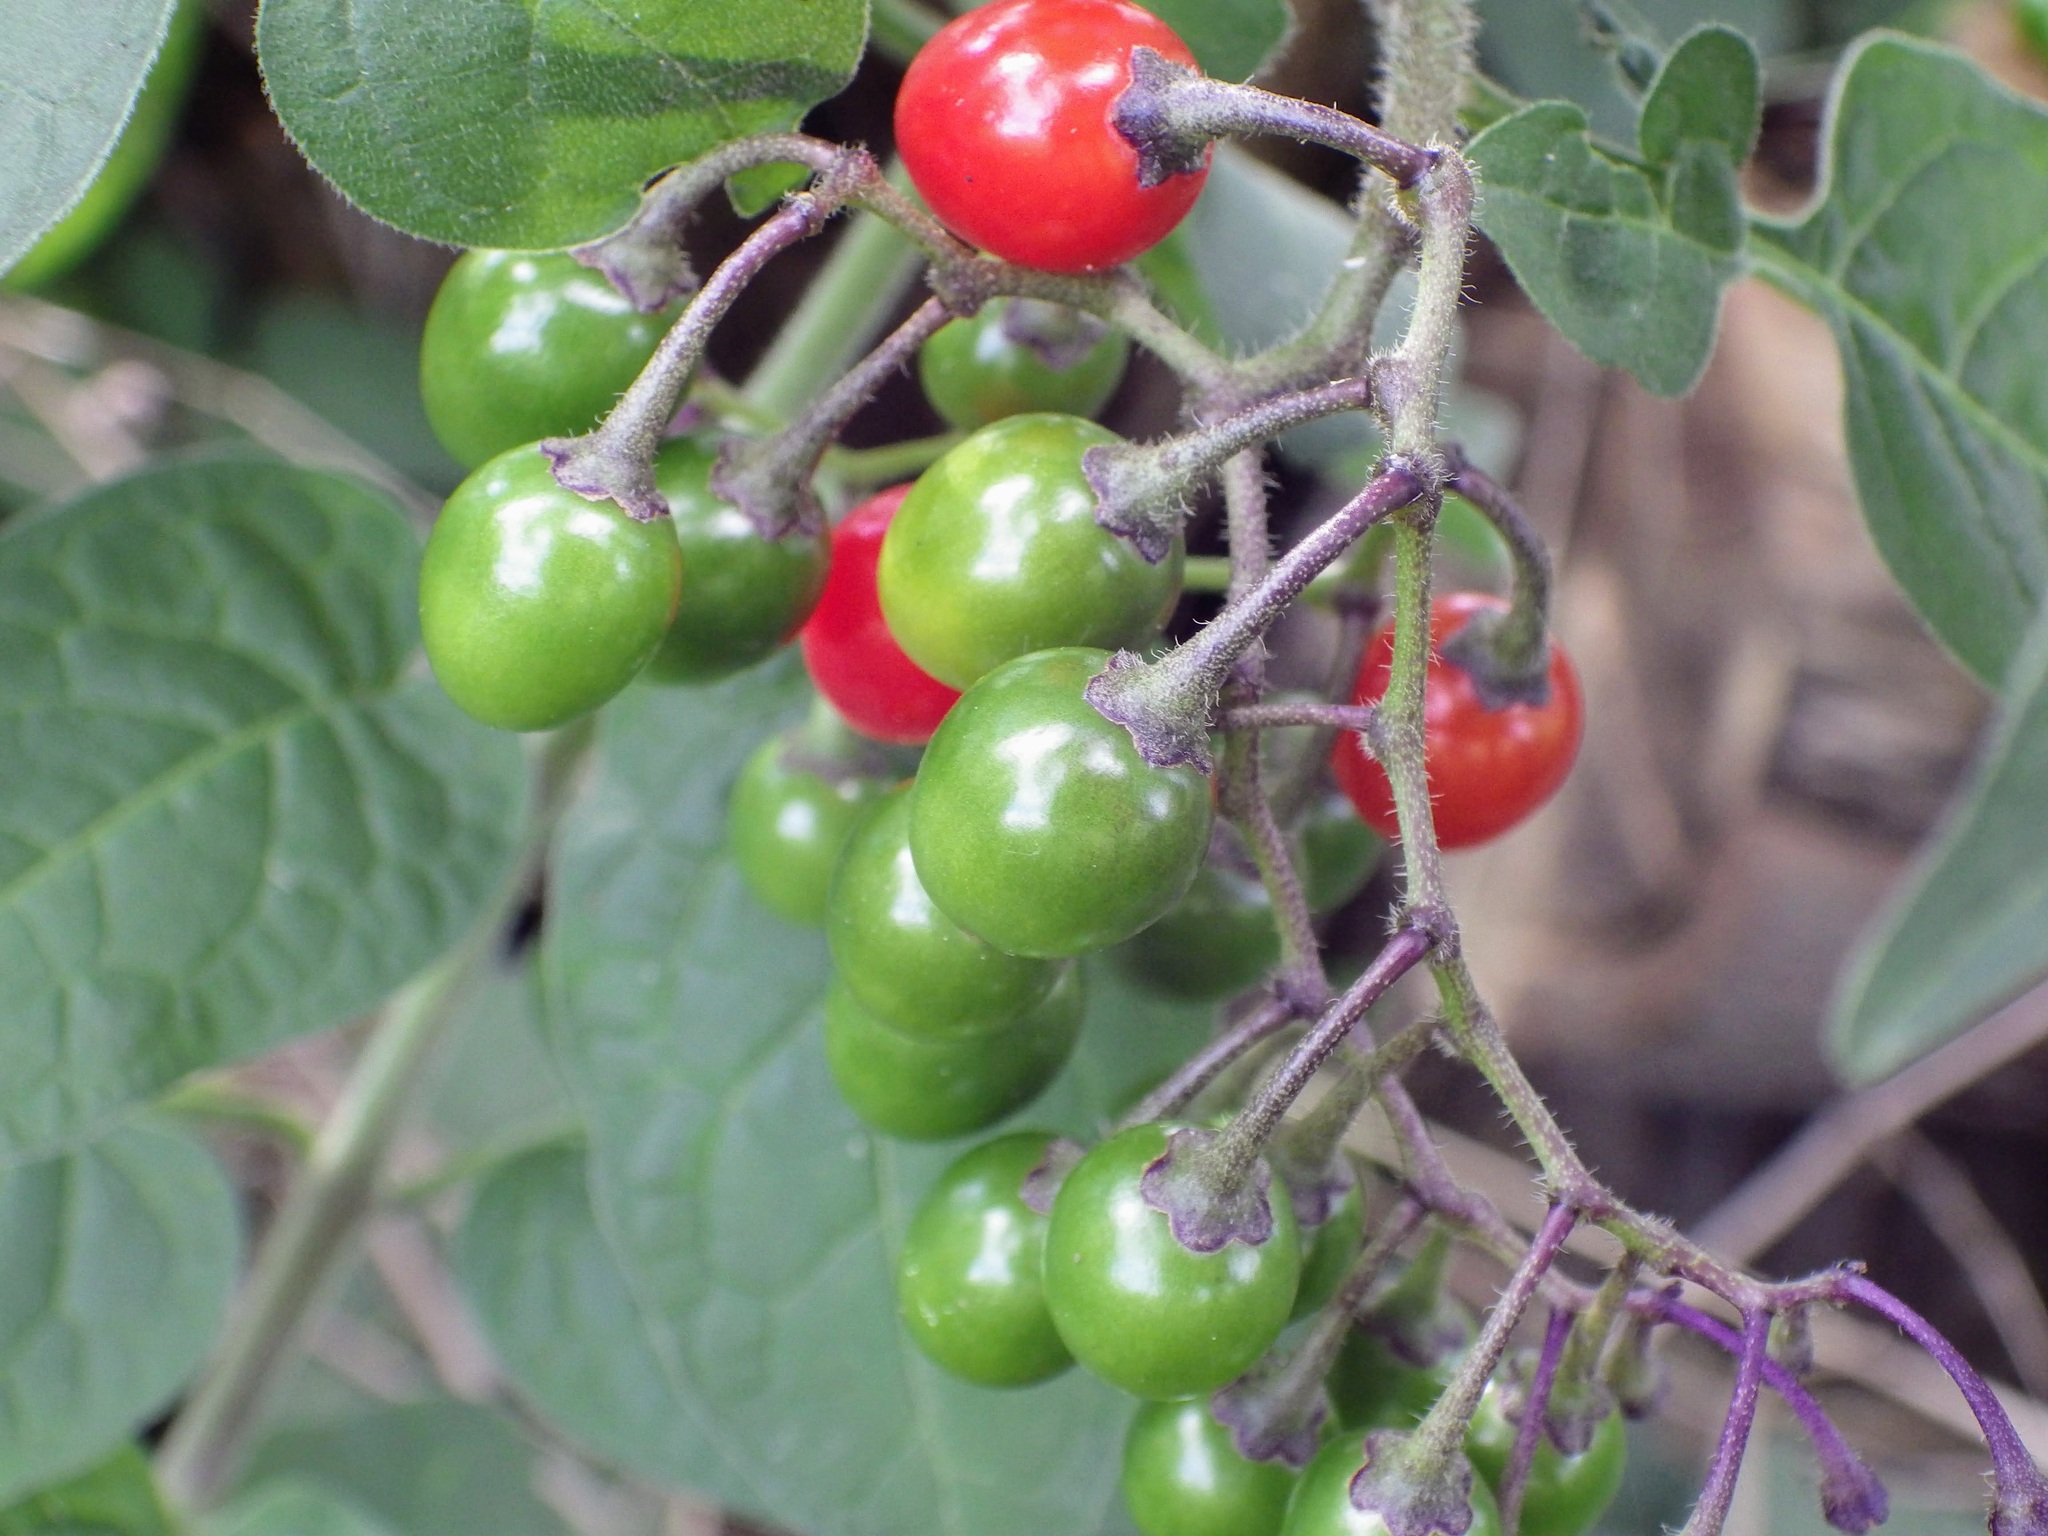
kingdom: Plantae
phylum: Tracheophyta
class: Magnoliopsida
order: Solanales
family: Solanaceae
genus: Solanum
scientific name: Solanum dulcamara
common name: Climbing nightshade
